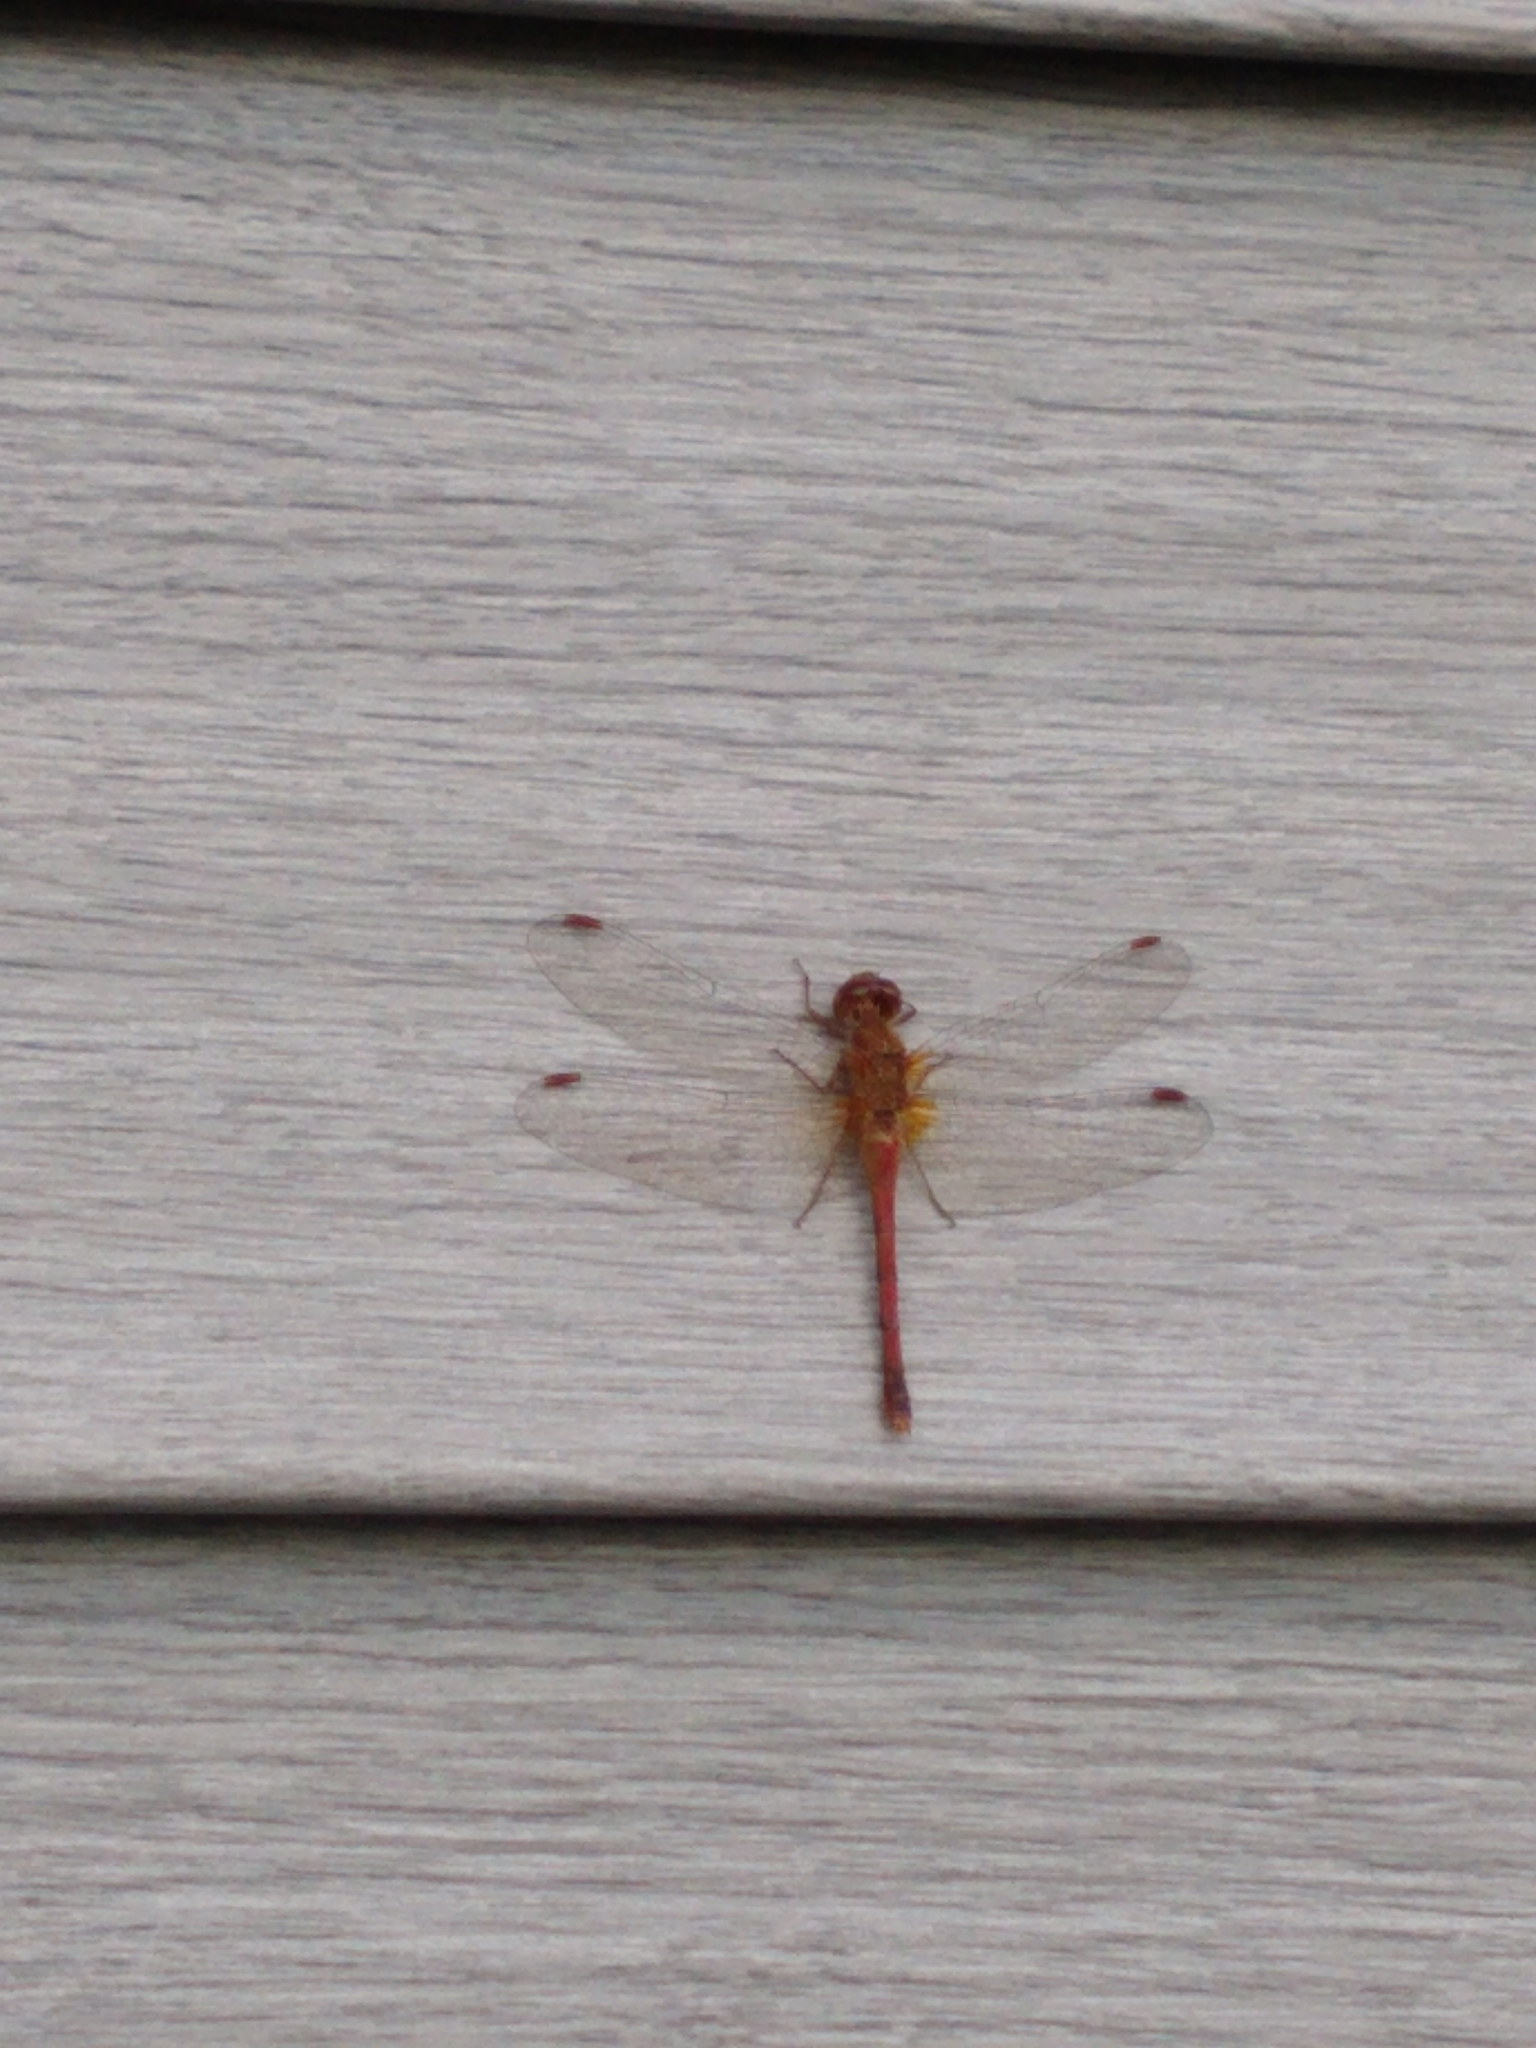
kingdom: Animalia
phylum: Arthropoda
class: Insecta
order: Odonata
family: Libellulidae
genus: Sympetrum
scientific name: Sympetrum vicinum
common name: Autumn meadowhawk
